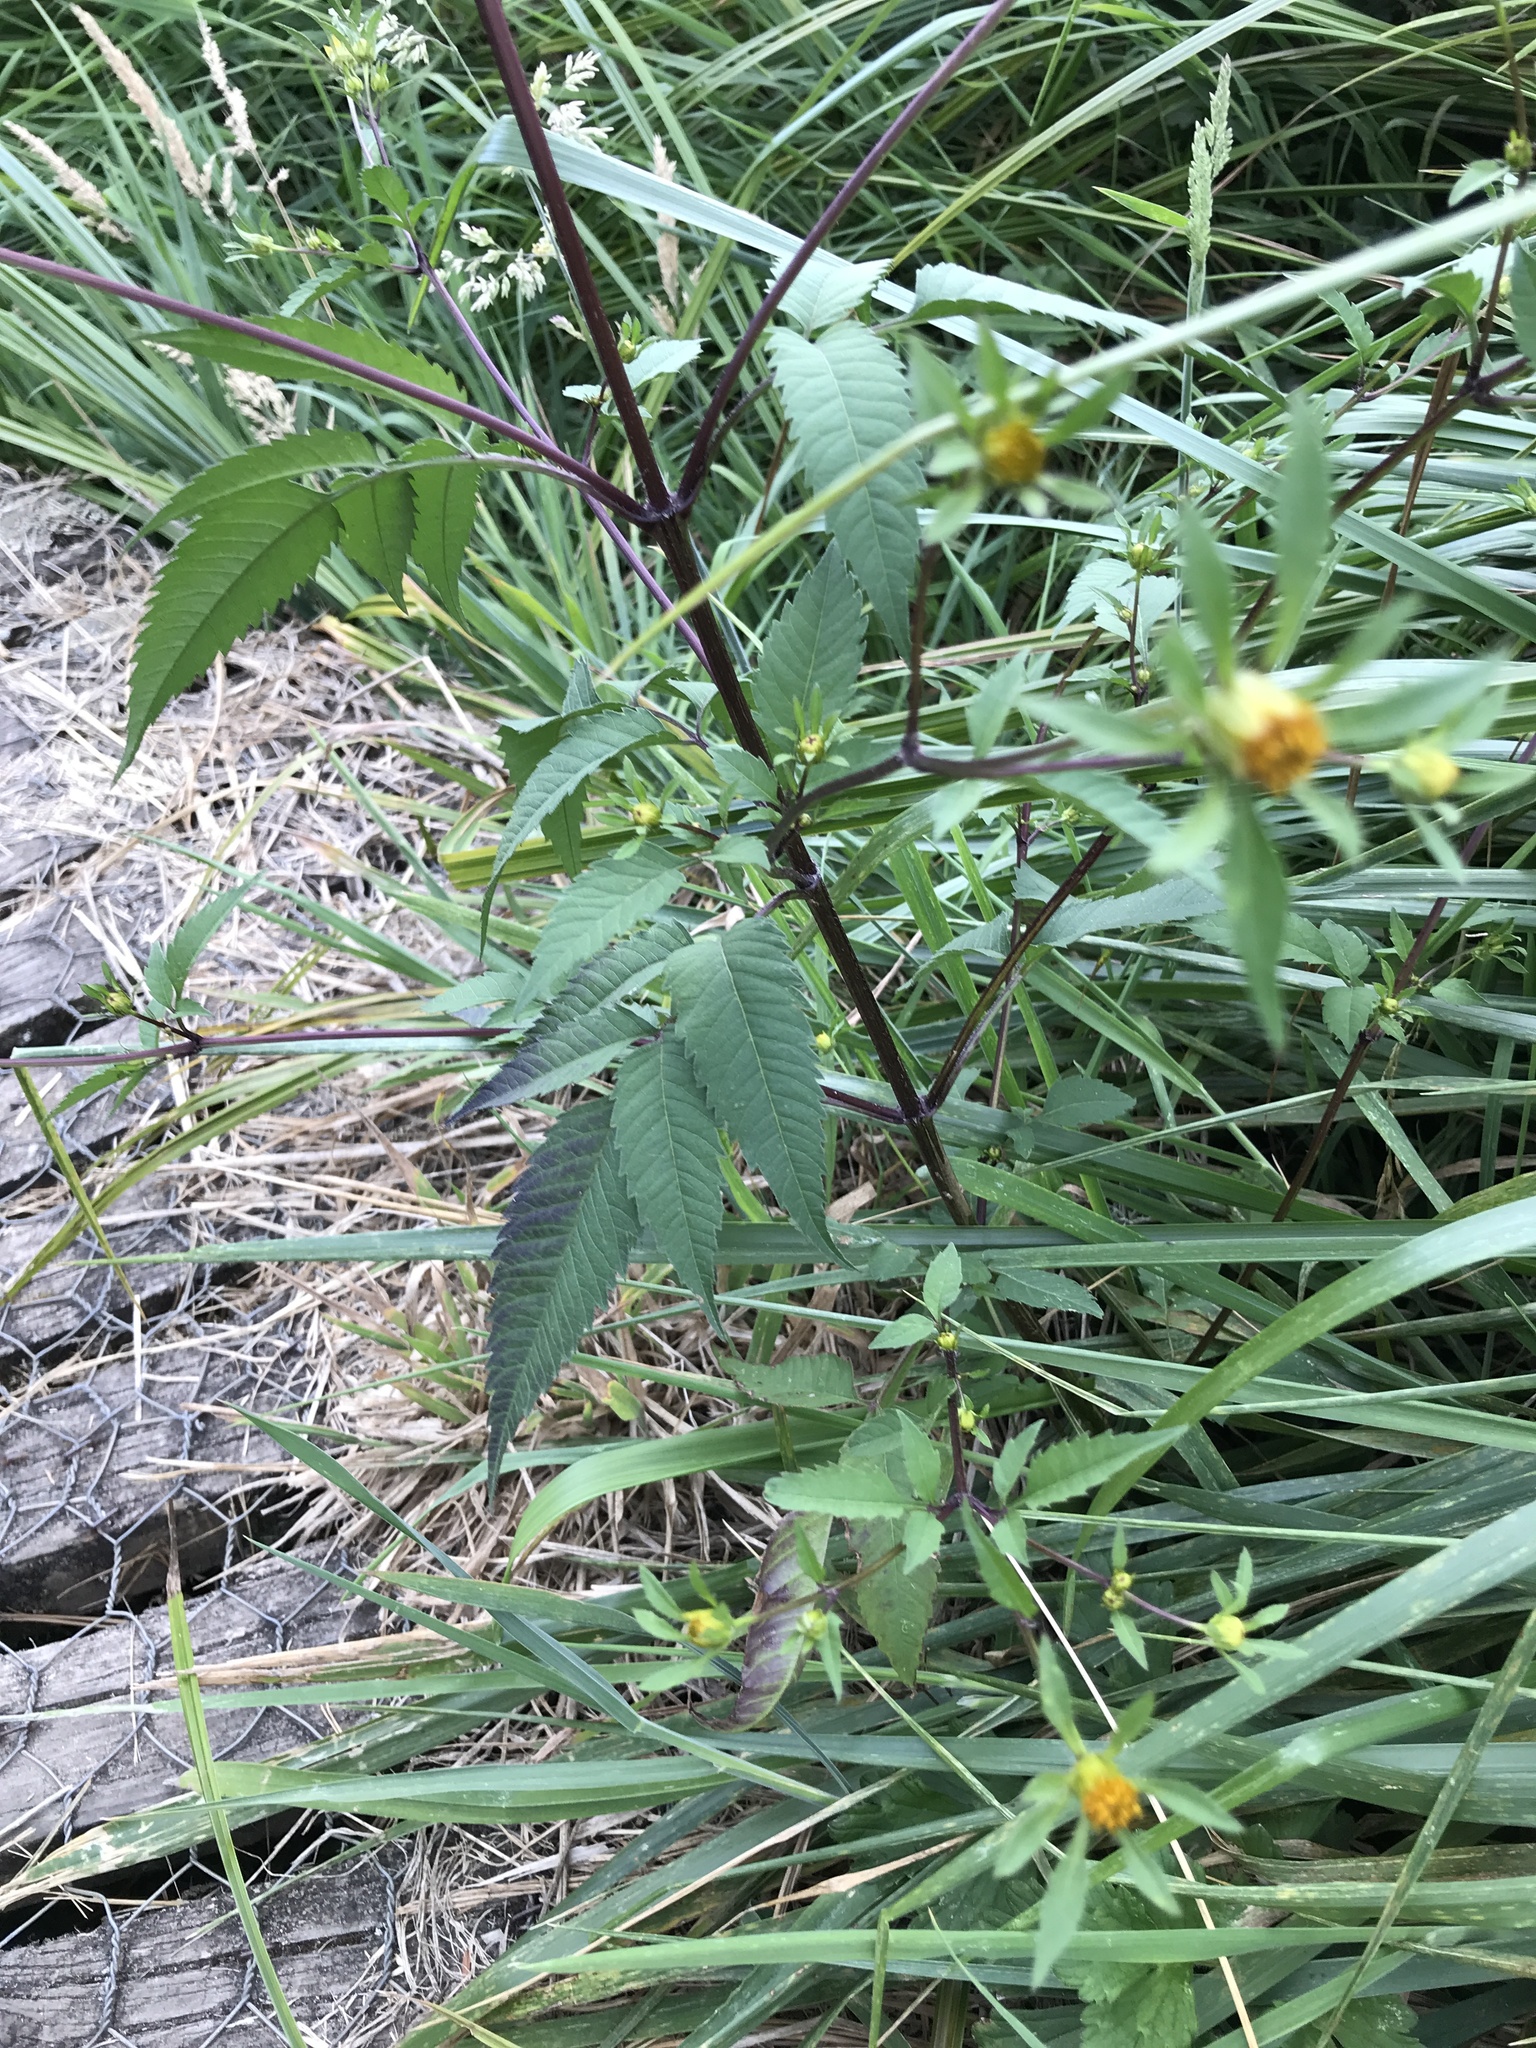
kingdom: Plantae
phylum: Tracheophyta
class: Magnoliopsida
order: Asterales
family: Asteraceae
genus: Bidens
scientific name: Bidens frondosa
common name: Beggarticks
